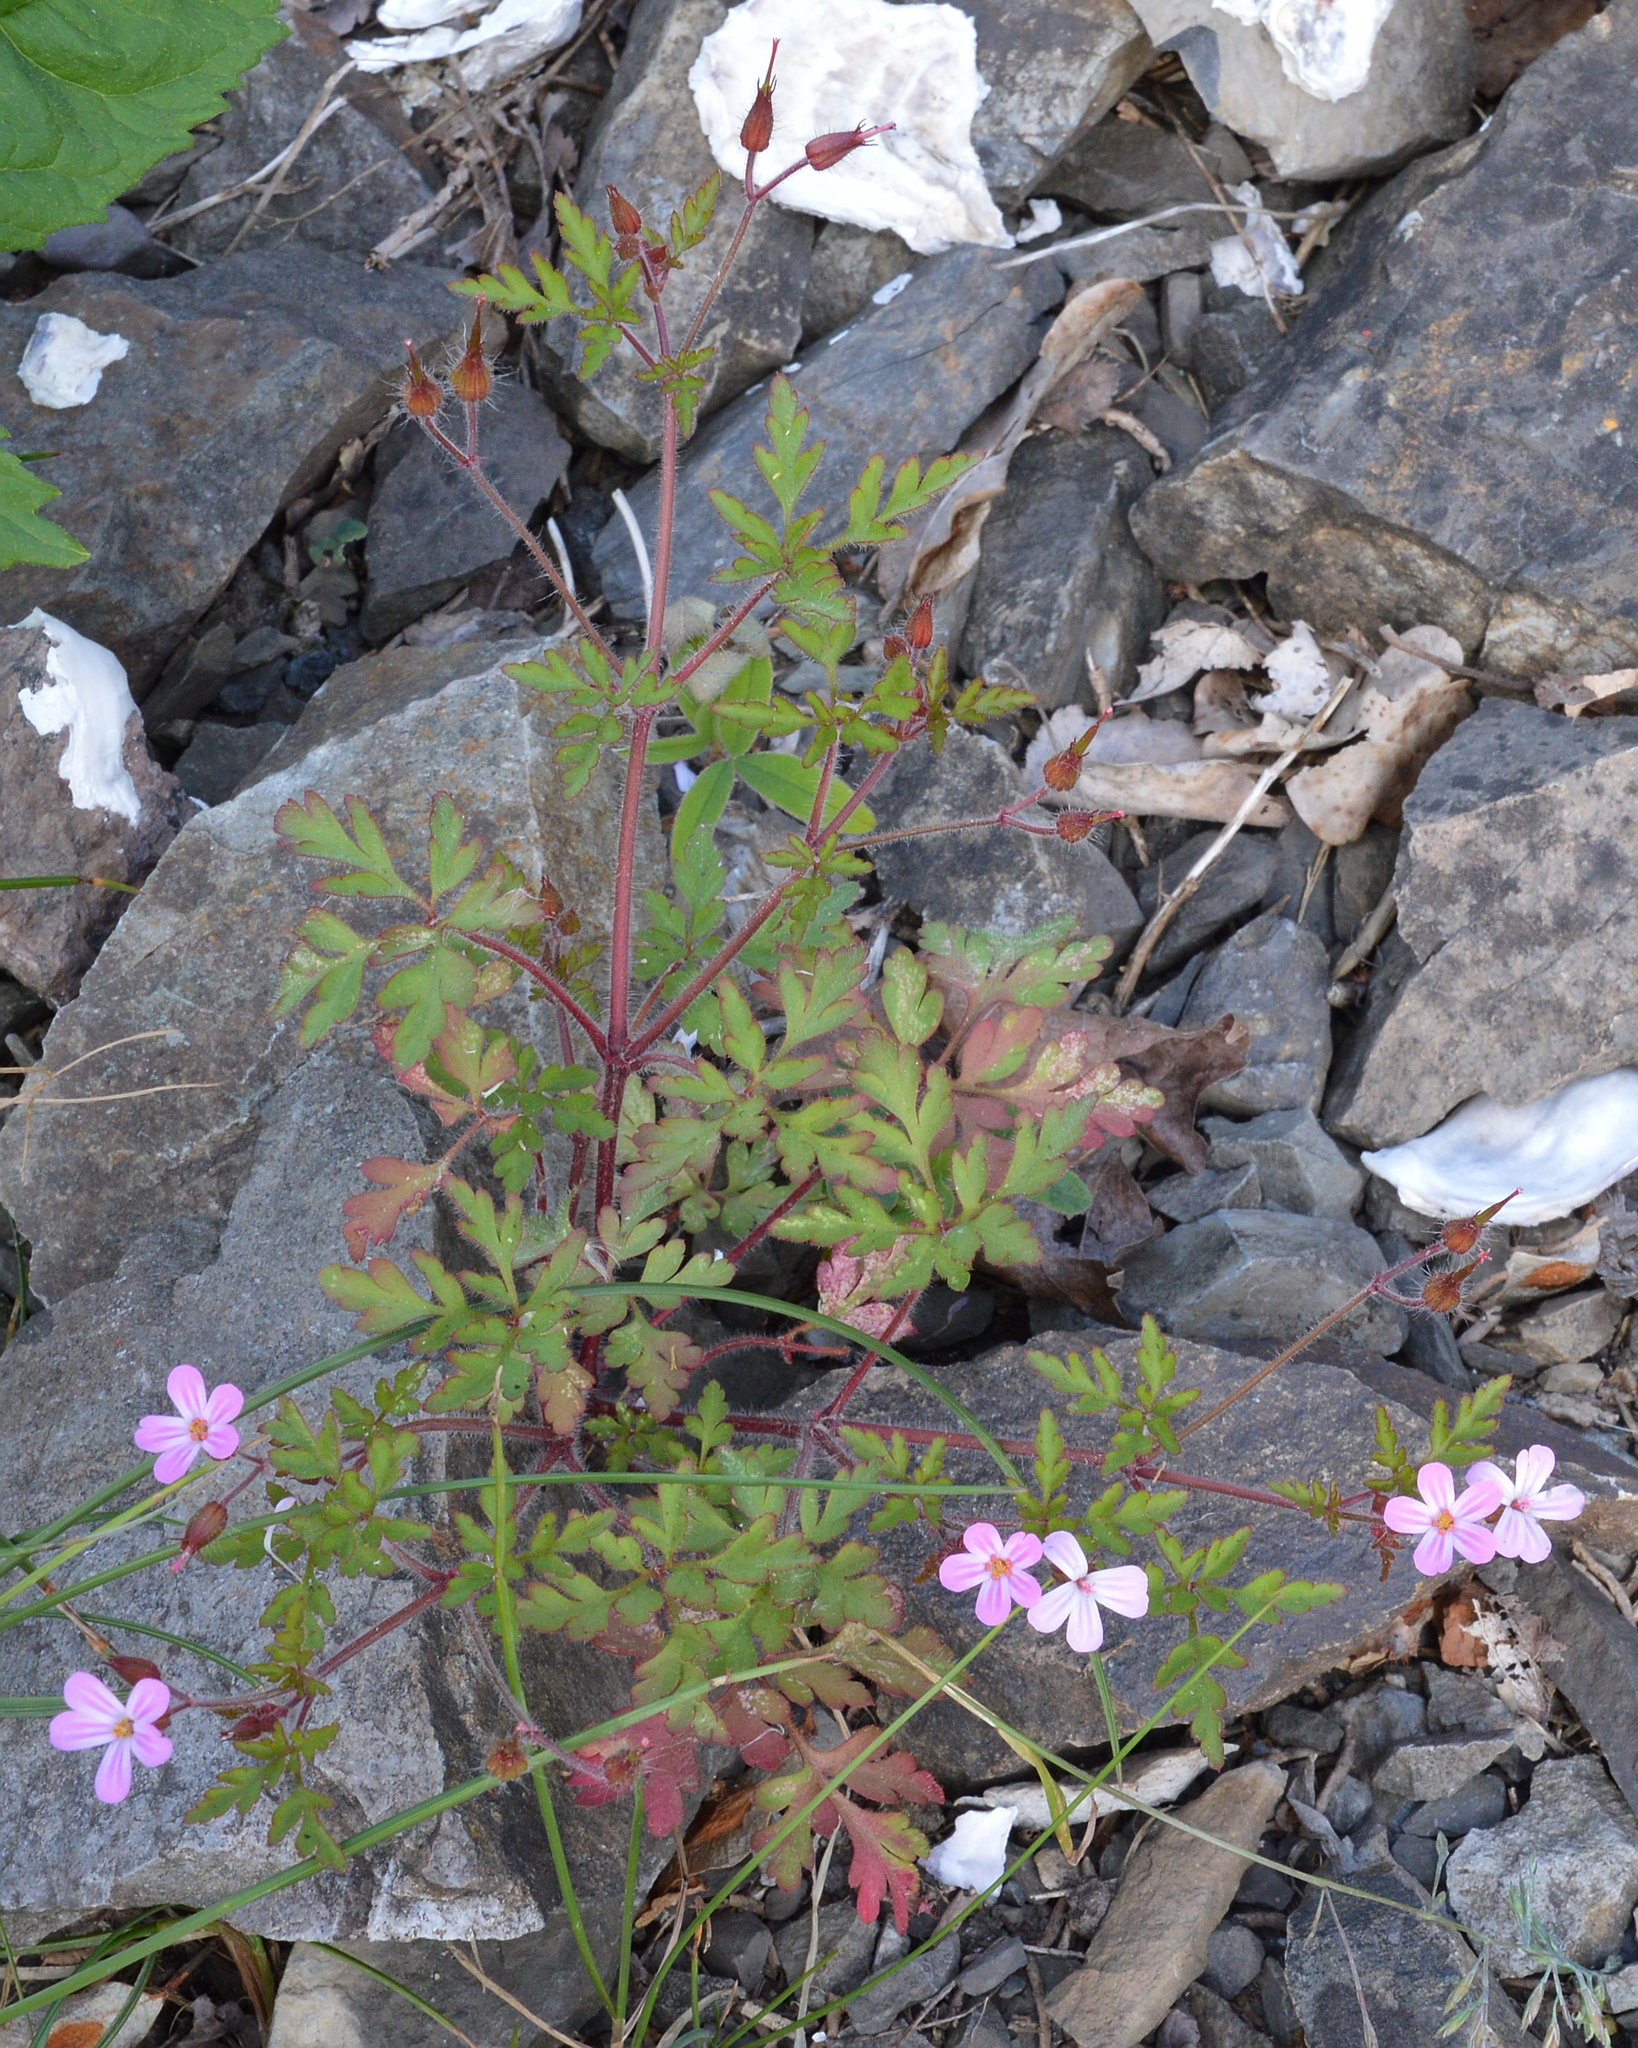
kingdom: Plantae
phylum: Tracheophyta
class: Magnoliopsida
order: Geraniales
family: Geraniaceae
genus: Geranium
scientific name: Geranium robertianum
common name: Herb-robert
